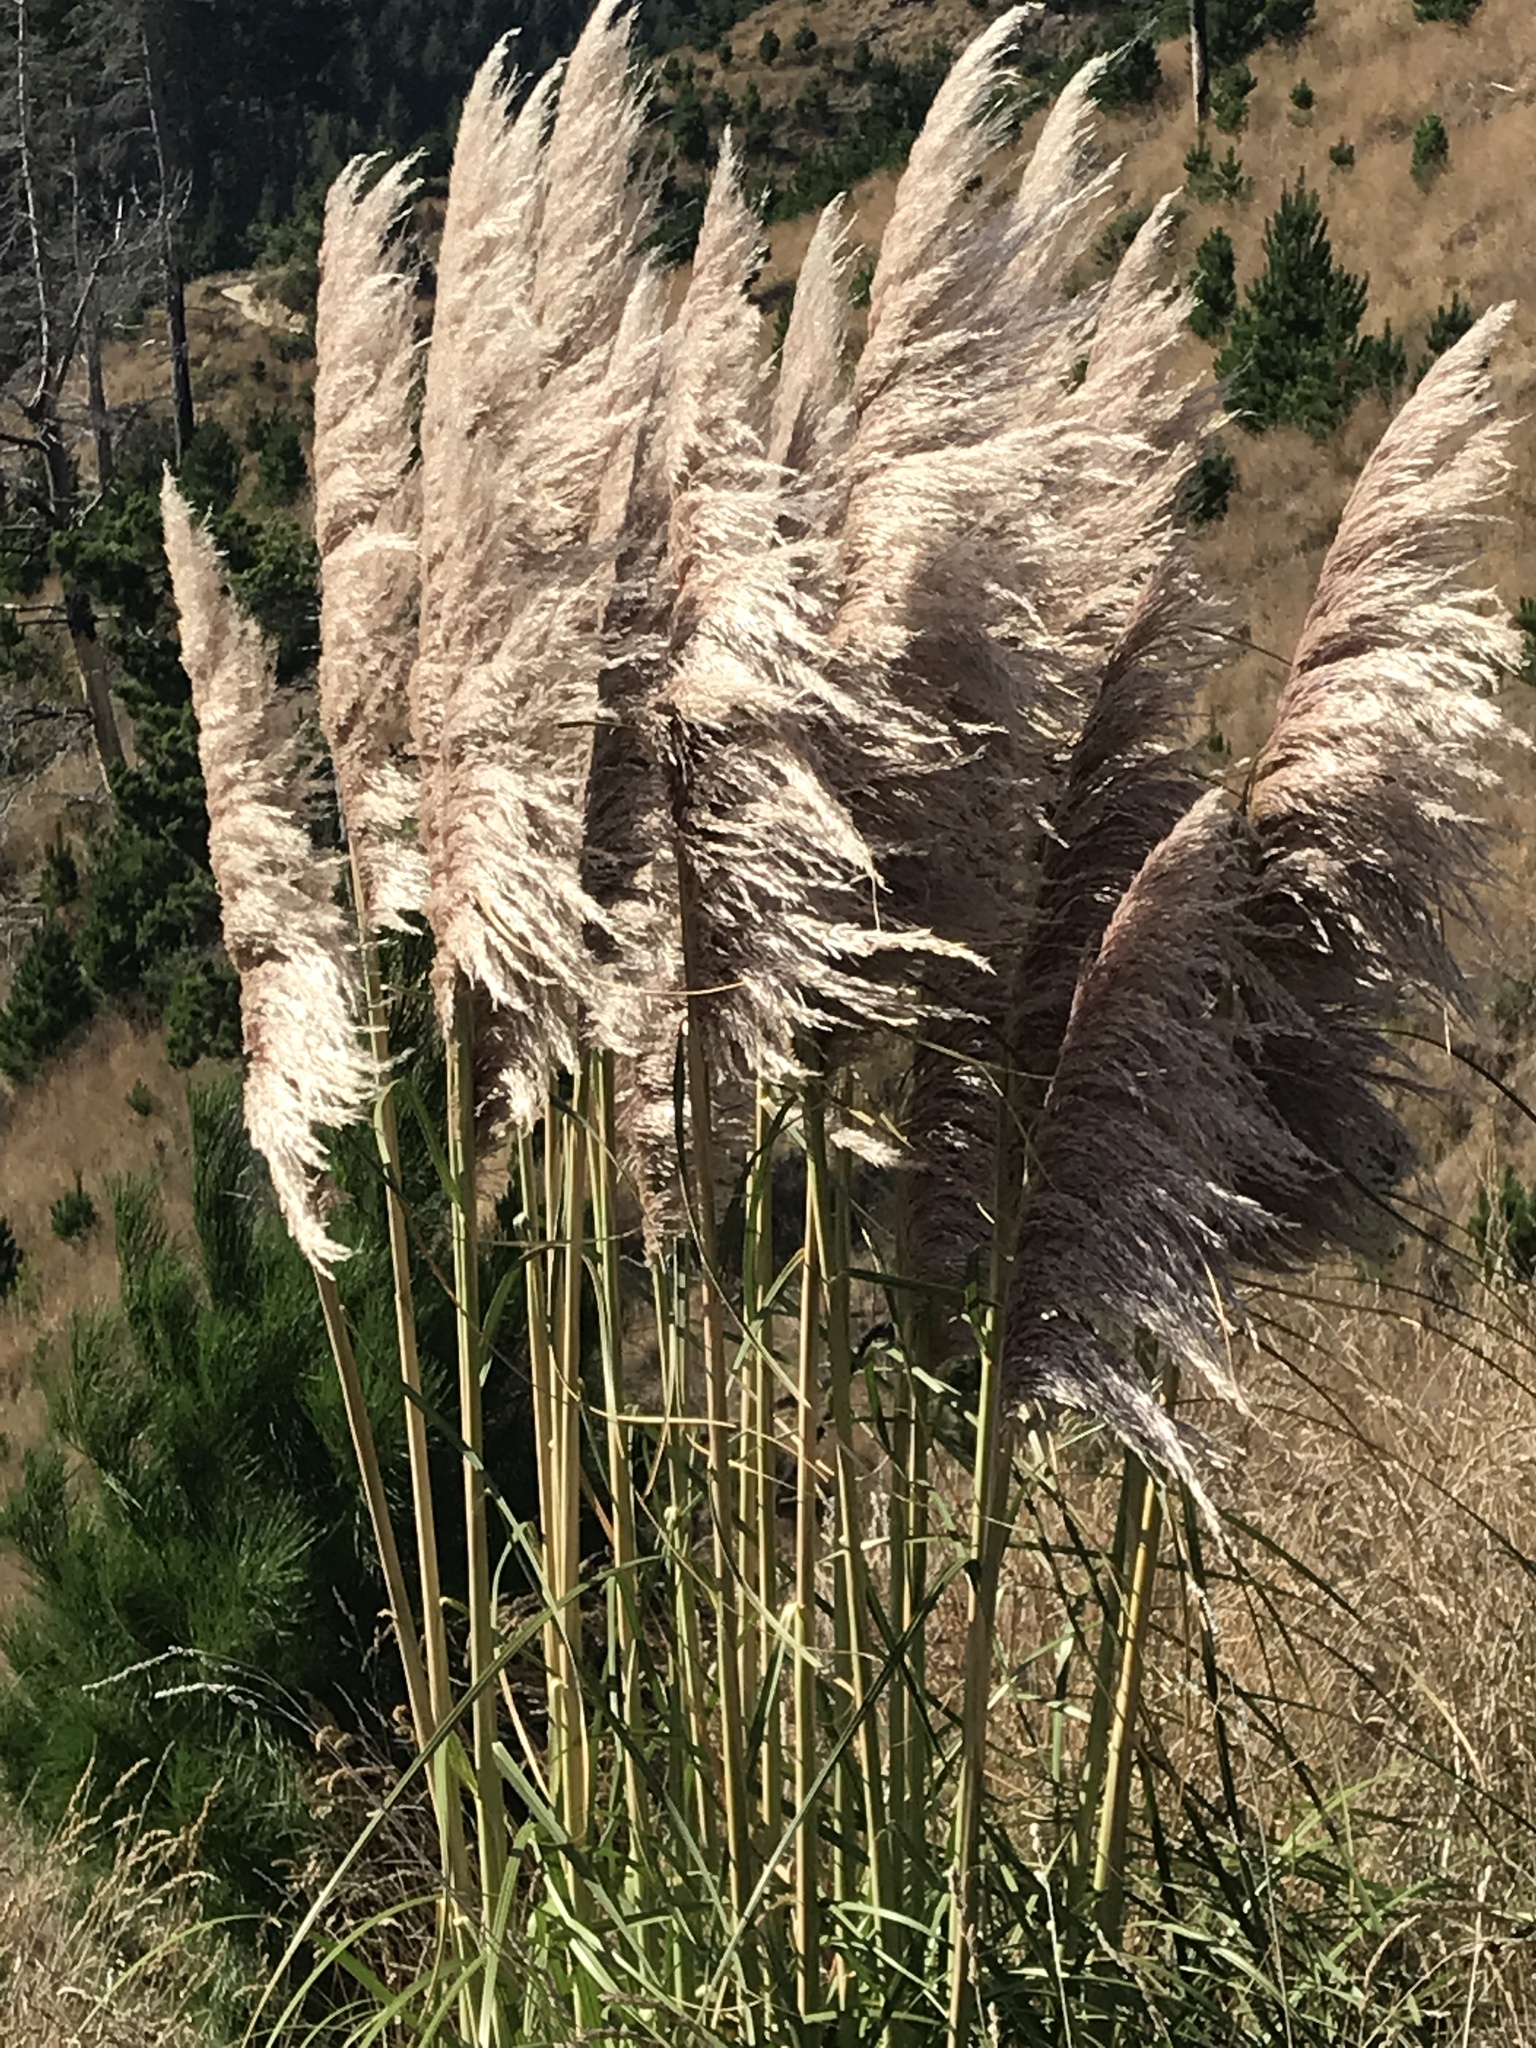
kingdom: Plantae
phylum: Tracheophyta
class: Liliopsida
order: Poales
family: Poaceae
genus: Cortaderia
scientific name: Cortaderia jubata
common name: Purple pampas grass
